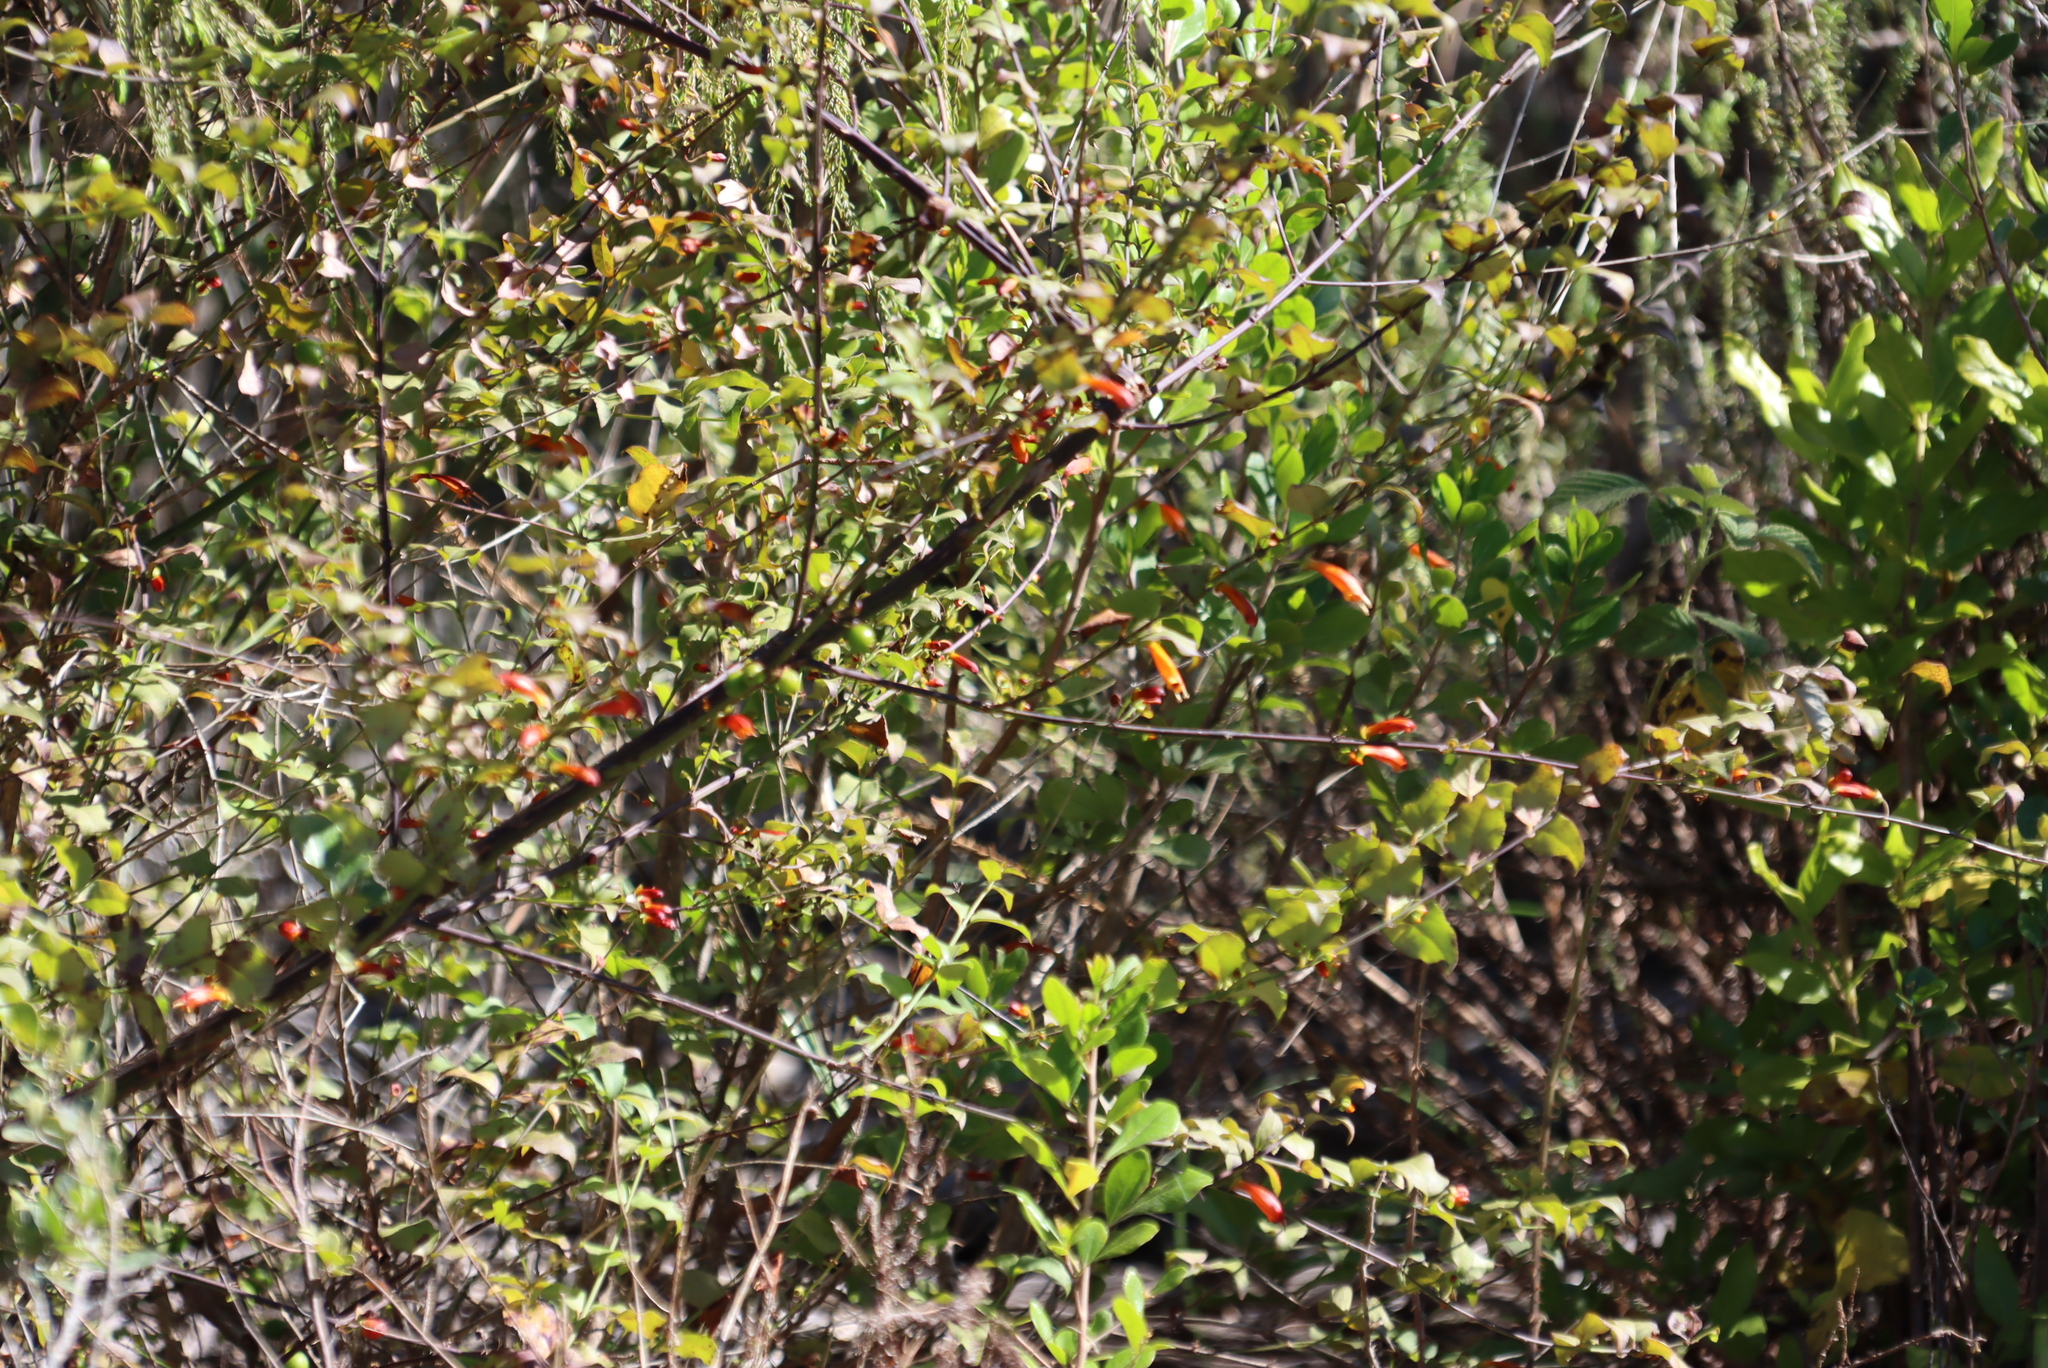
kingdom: Plantae
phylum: Tracheophyta
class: Magnoliopsida
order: Lamiales
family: Stilbaceae
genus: Halleria
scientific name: Halleria lucida
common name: Tree fuschia
